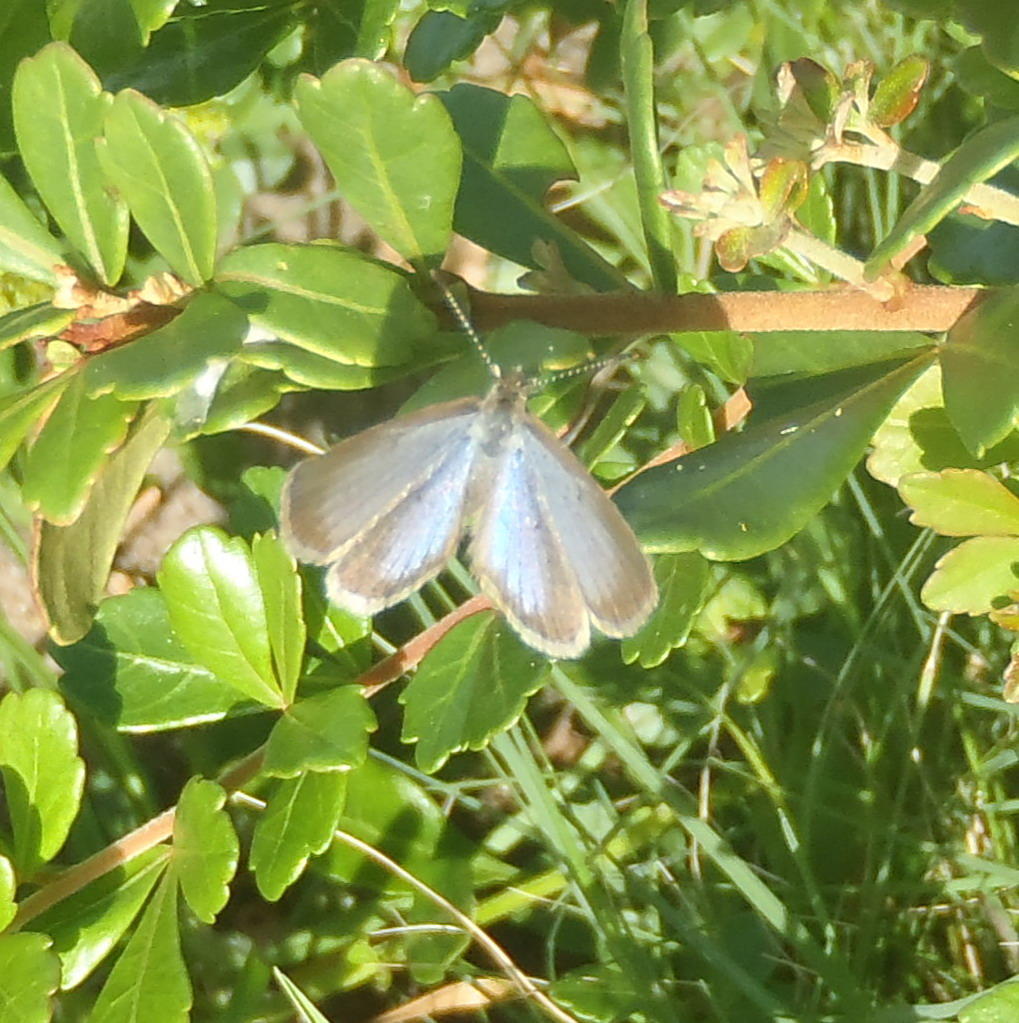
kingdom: Animalia
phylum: Arthropoda
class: Insecta
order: Lepidoptera
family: Lycaenidae
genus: Zizeeria
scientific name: Zizeeria knysna
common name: African grass blue
